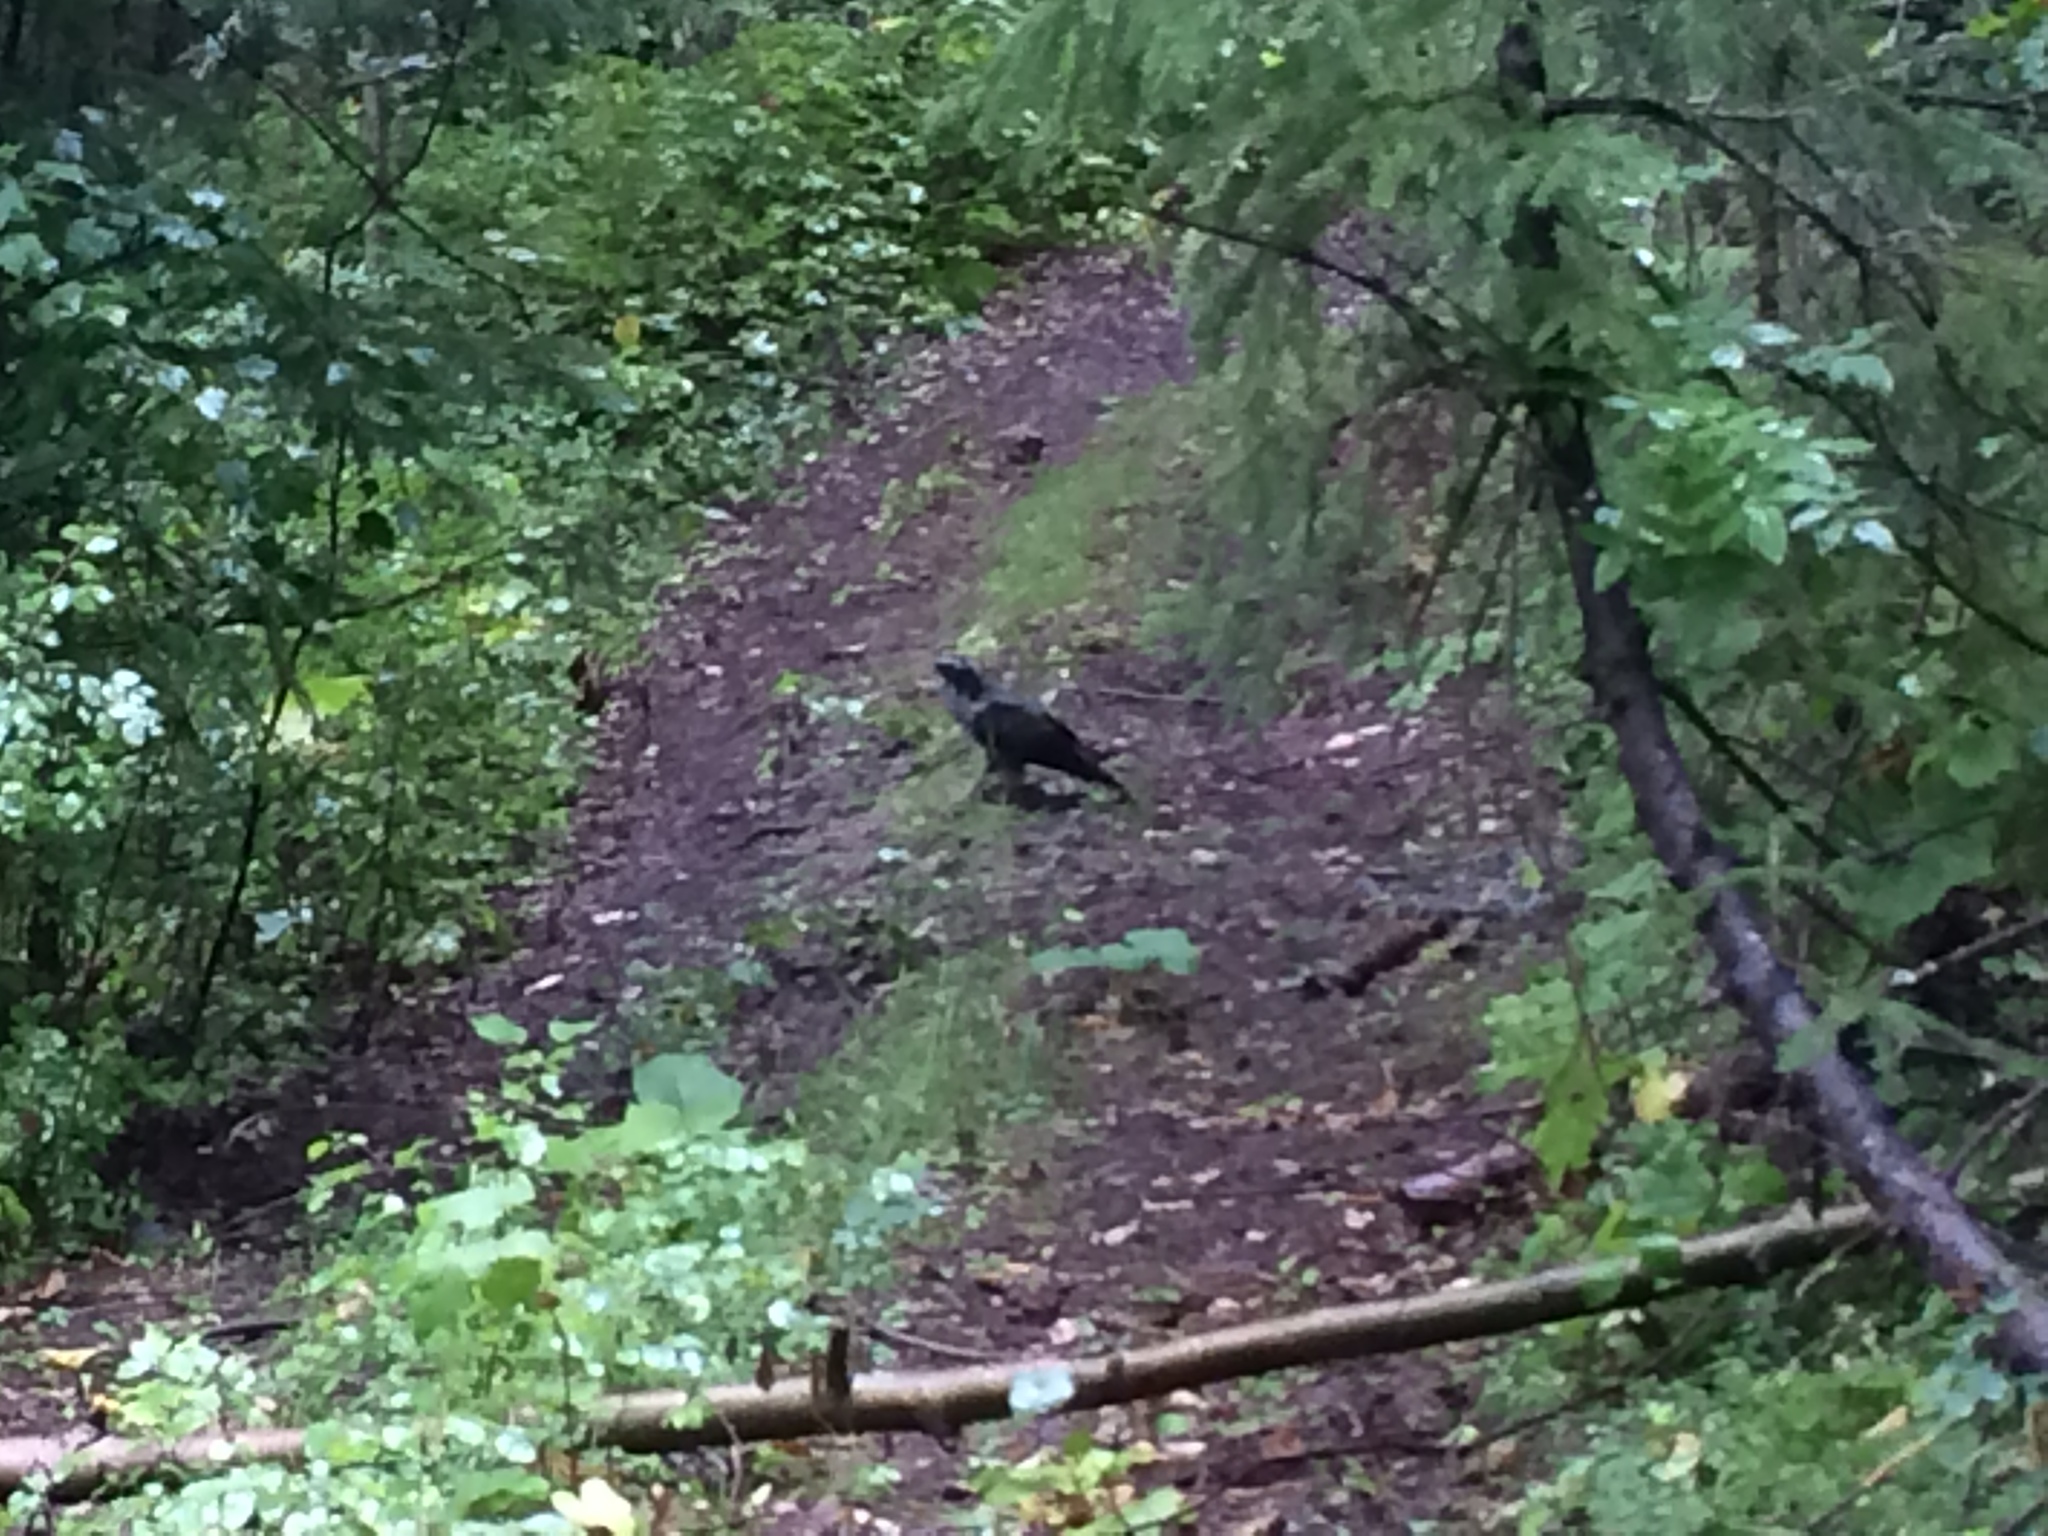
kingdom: Animalia
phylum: Chordata
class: Aves
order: Accipitriformes
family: Accipitridae
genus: Accipiter
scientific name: Accipiter gentilis
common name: Northern goshawk
